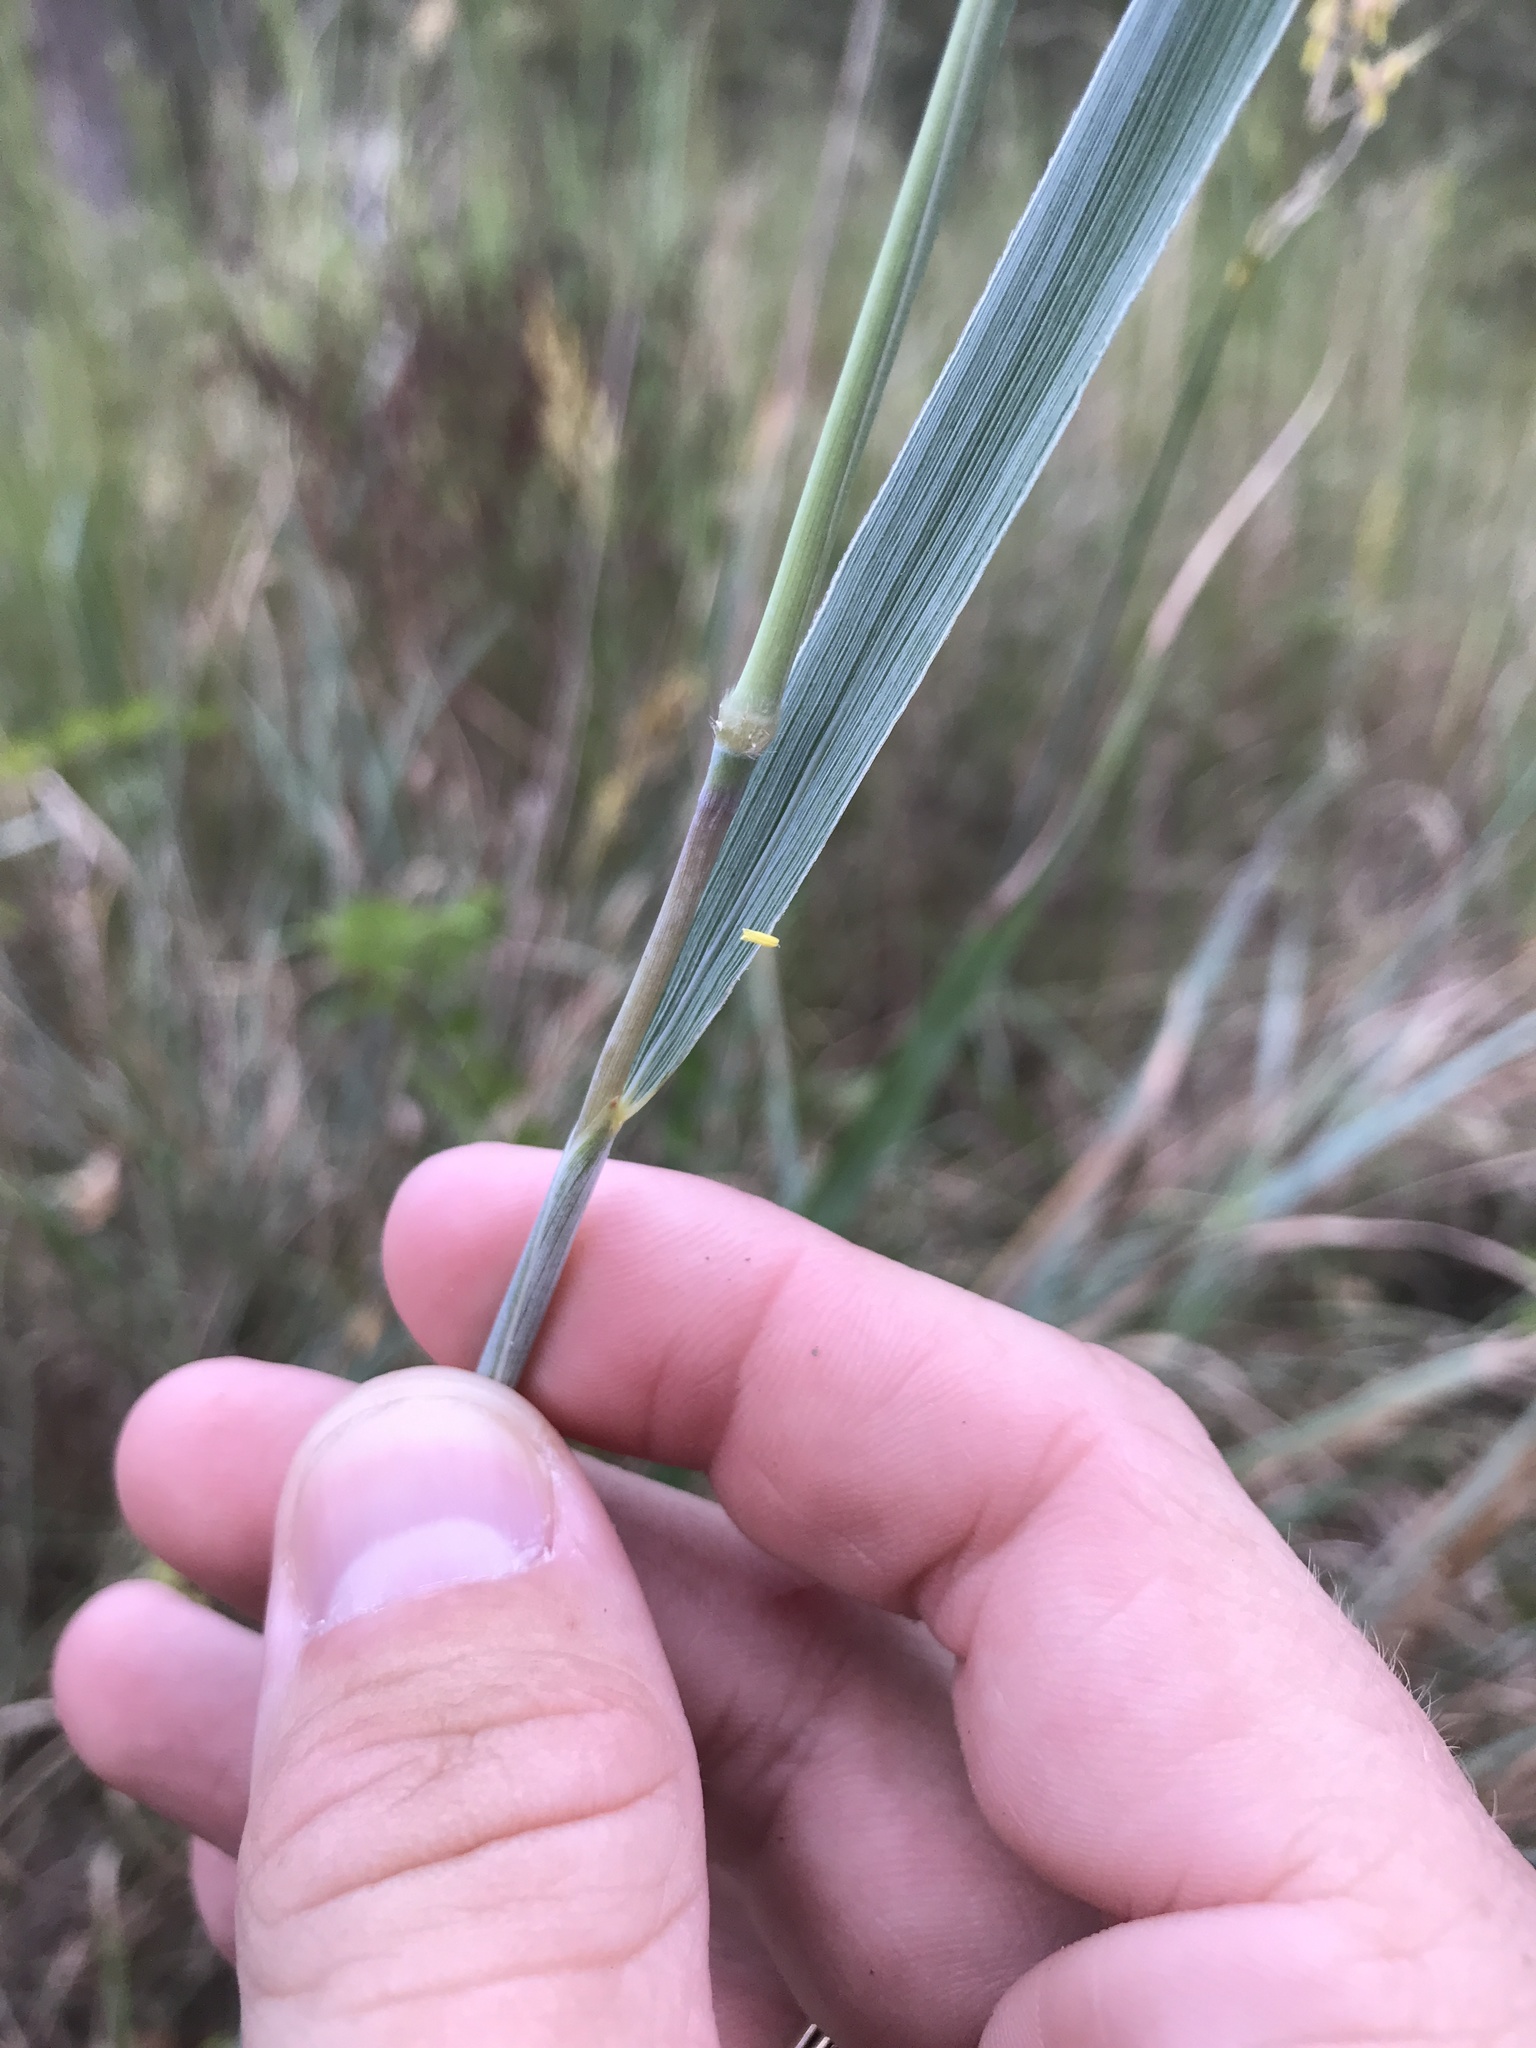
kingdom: Plantae
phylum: Tracheophyta
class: Liliopsida
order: Poales
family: Poaceae
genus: Sorghastrum
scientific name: Sorghastrum nutans
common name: Indian grass
